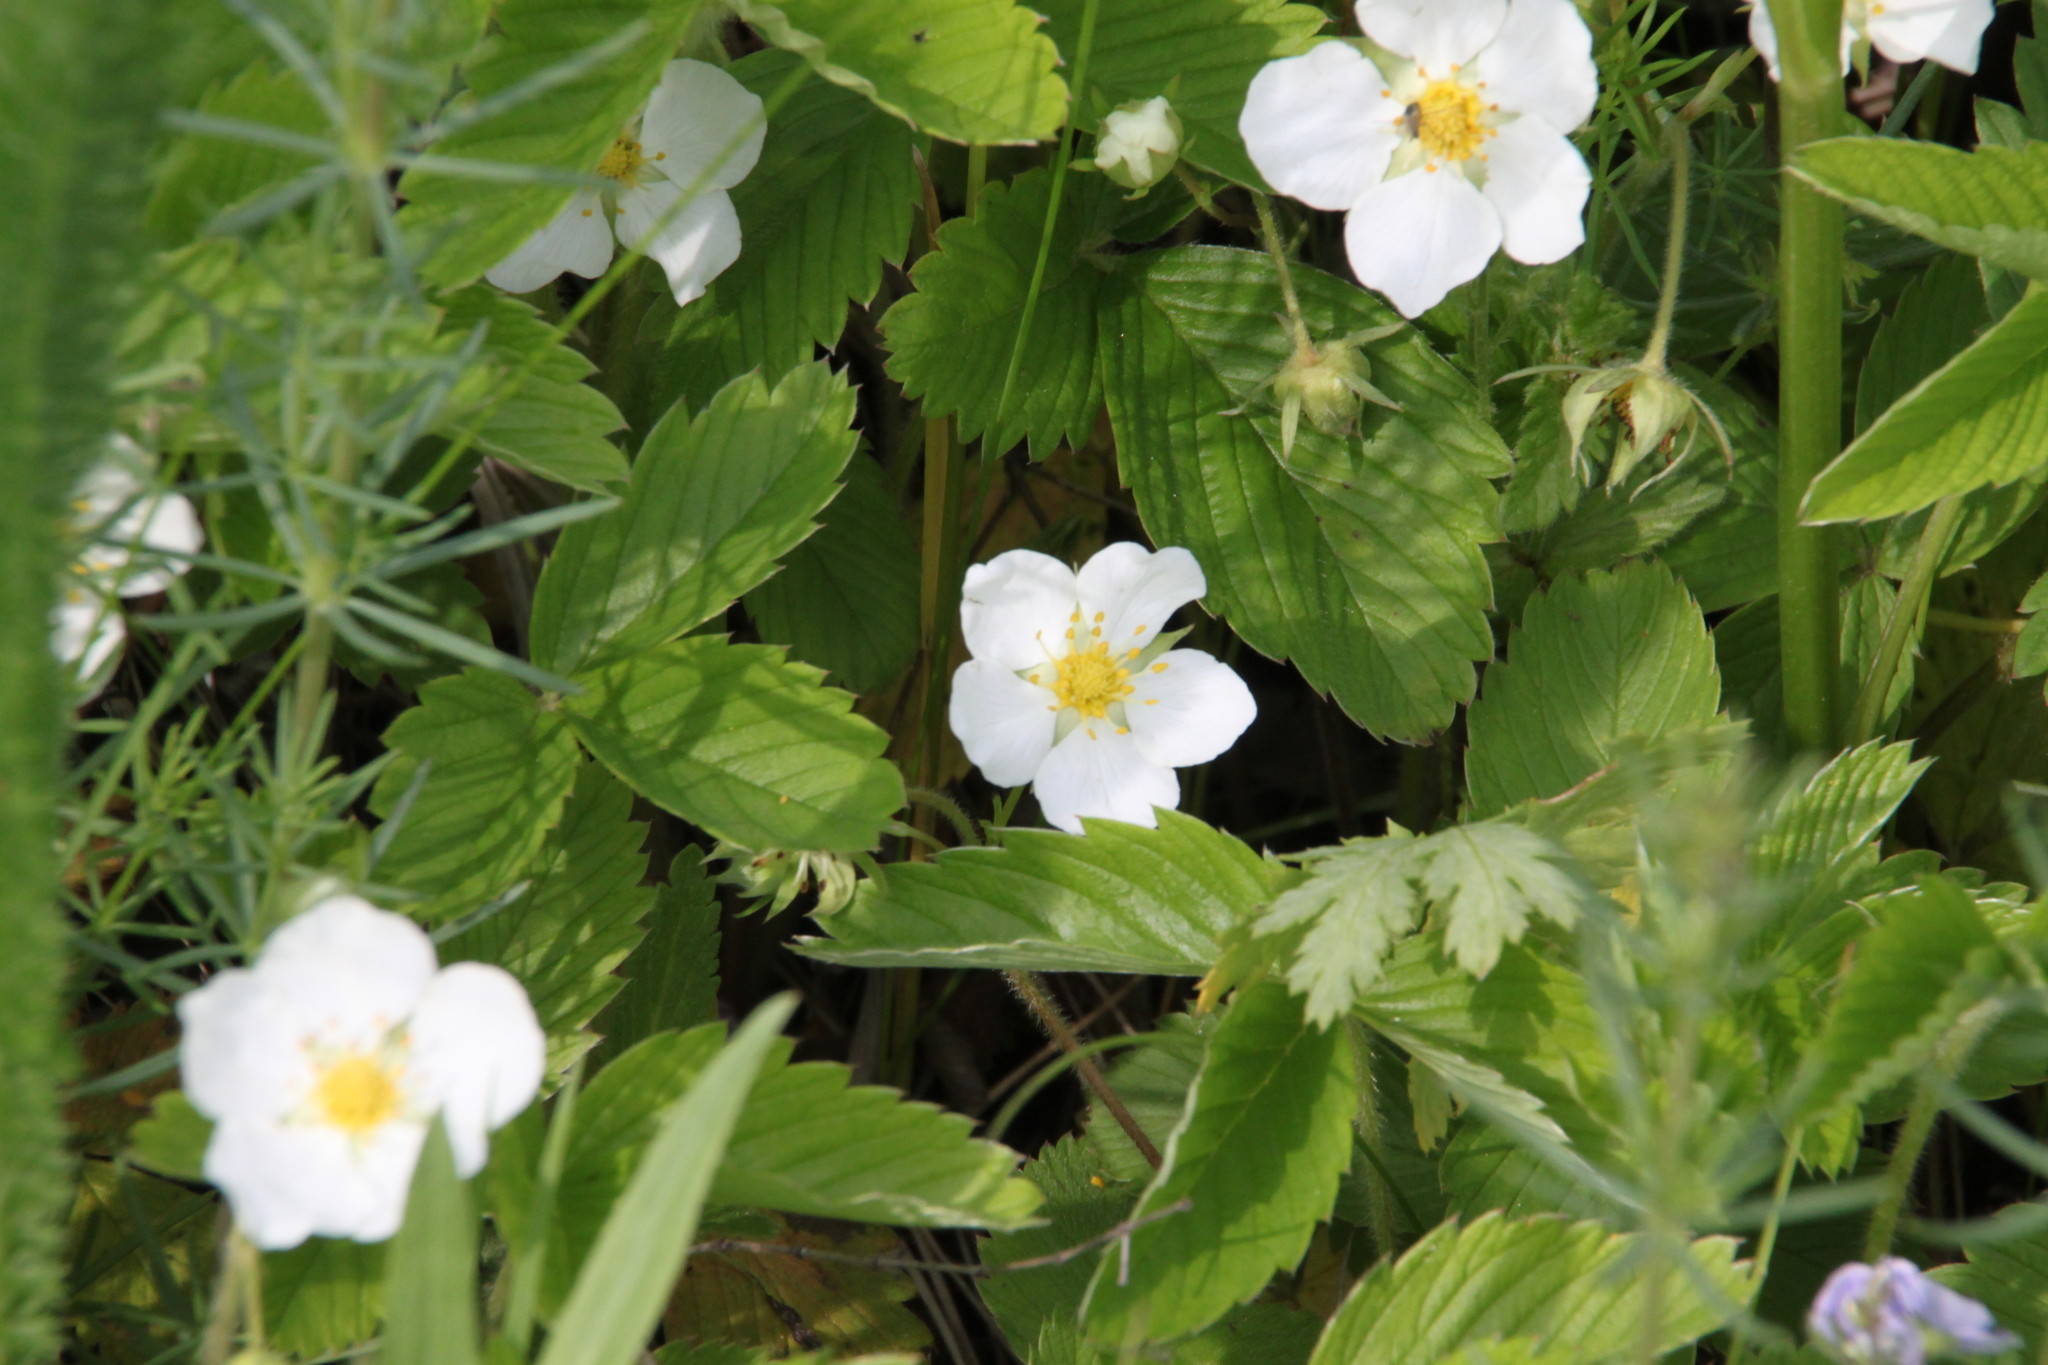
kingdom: Plantae
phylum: Tracheophyta
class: Magnoliopsida
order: Rosales
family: Rosaceae
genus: Fragaria
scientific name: Fragaria viridis
